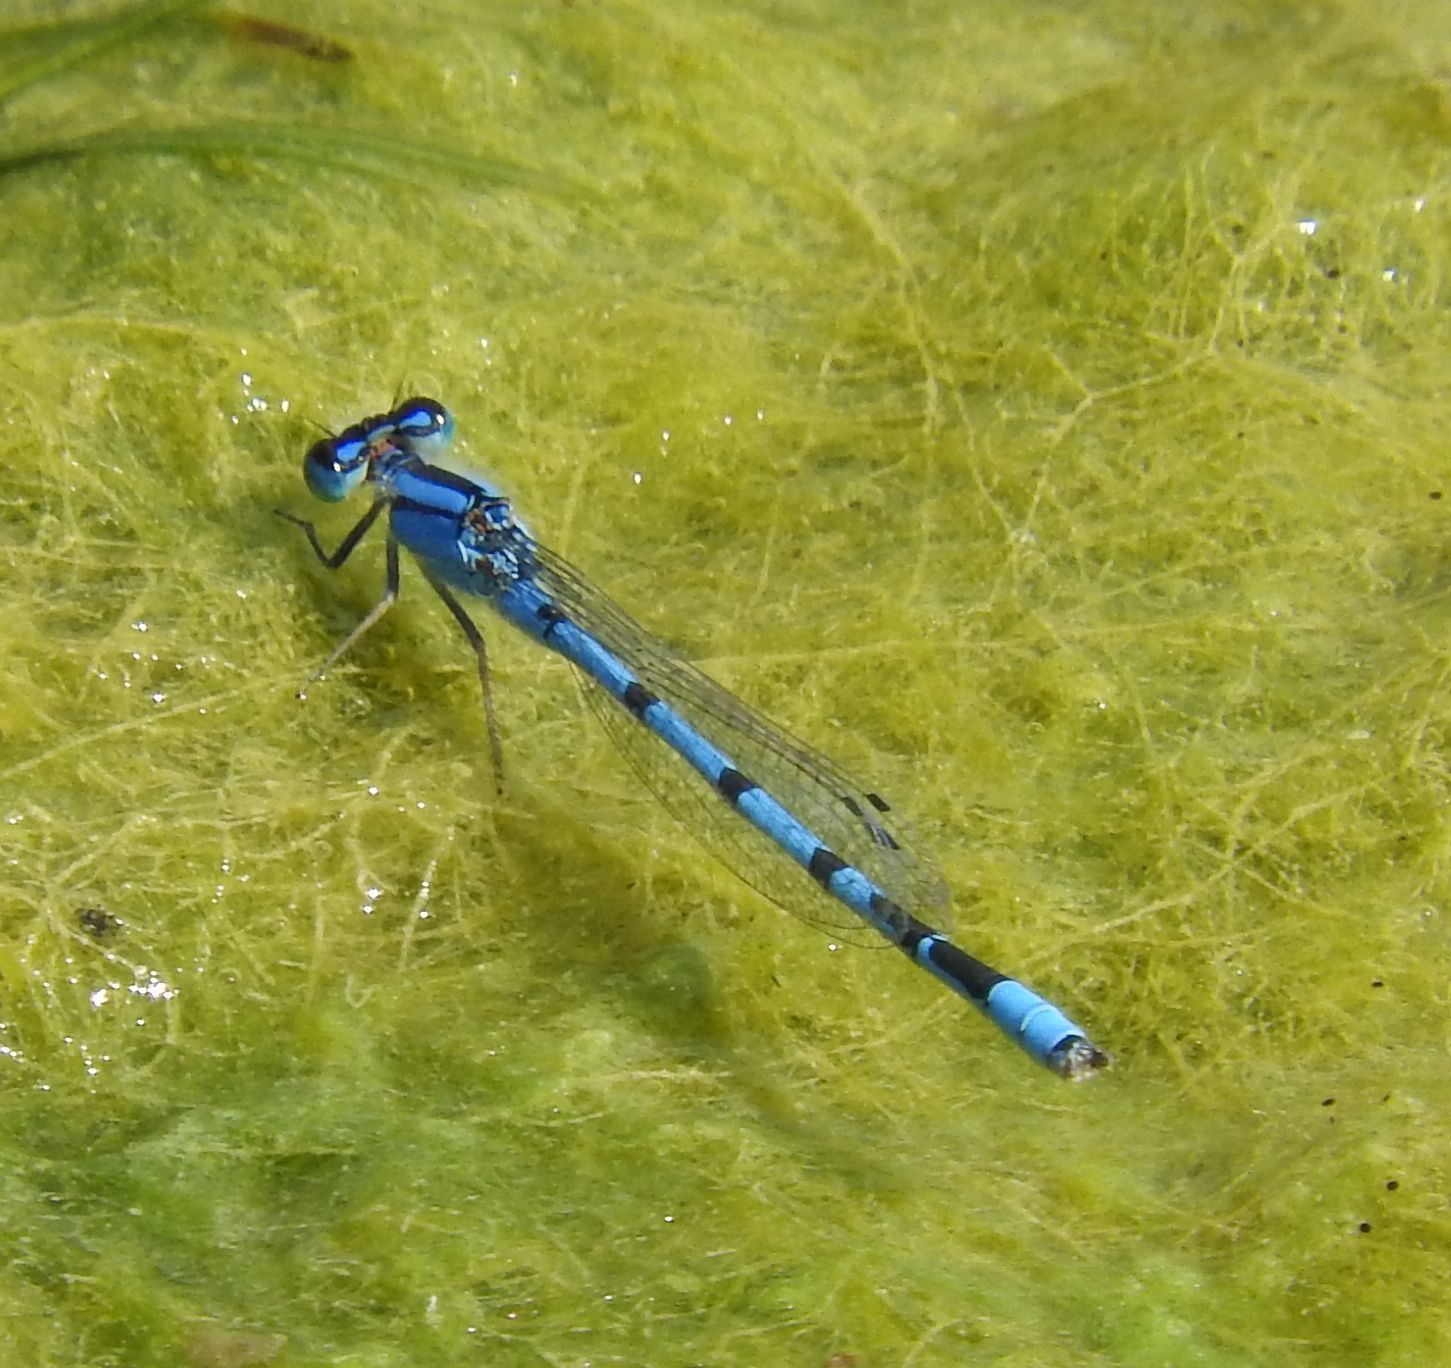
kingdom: Animalia
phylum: Arthropoda
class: Insecta
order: Odonata
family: Coenagrionidae
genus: Enallagma
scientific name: Enallagma civile
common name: Damselfly
